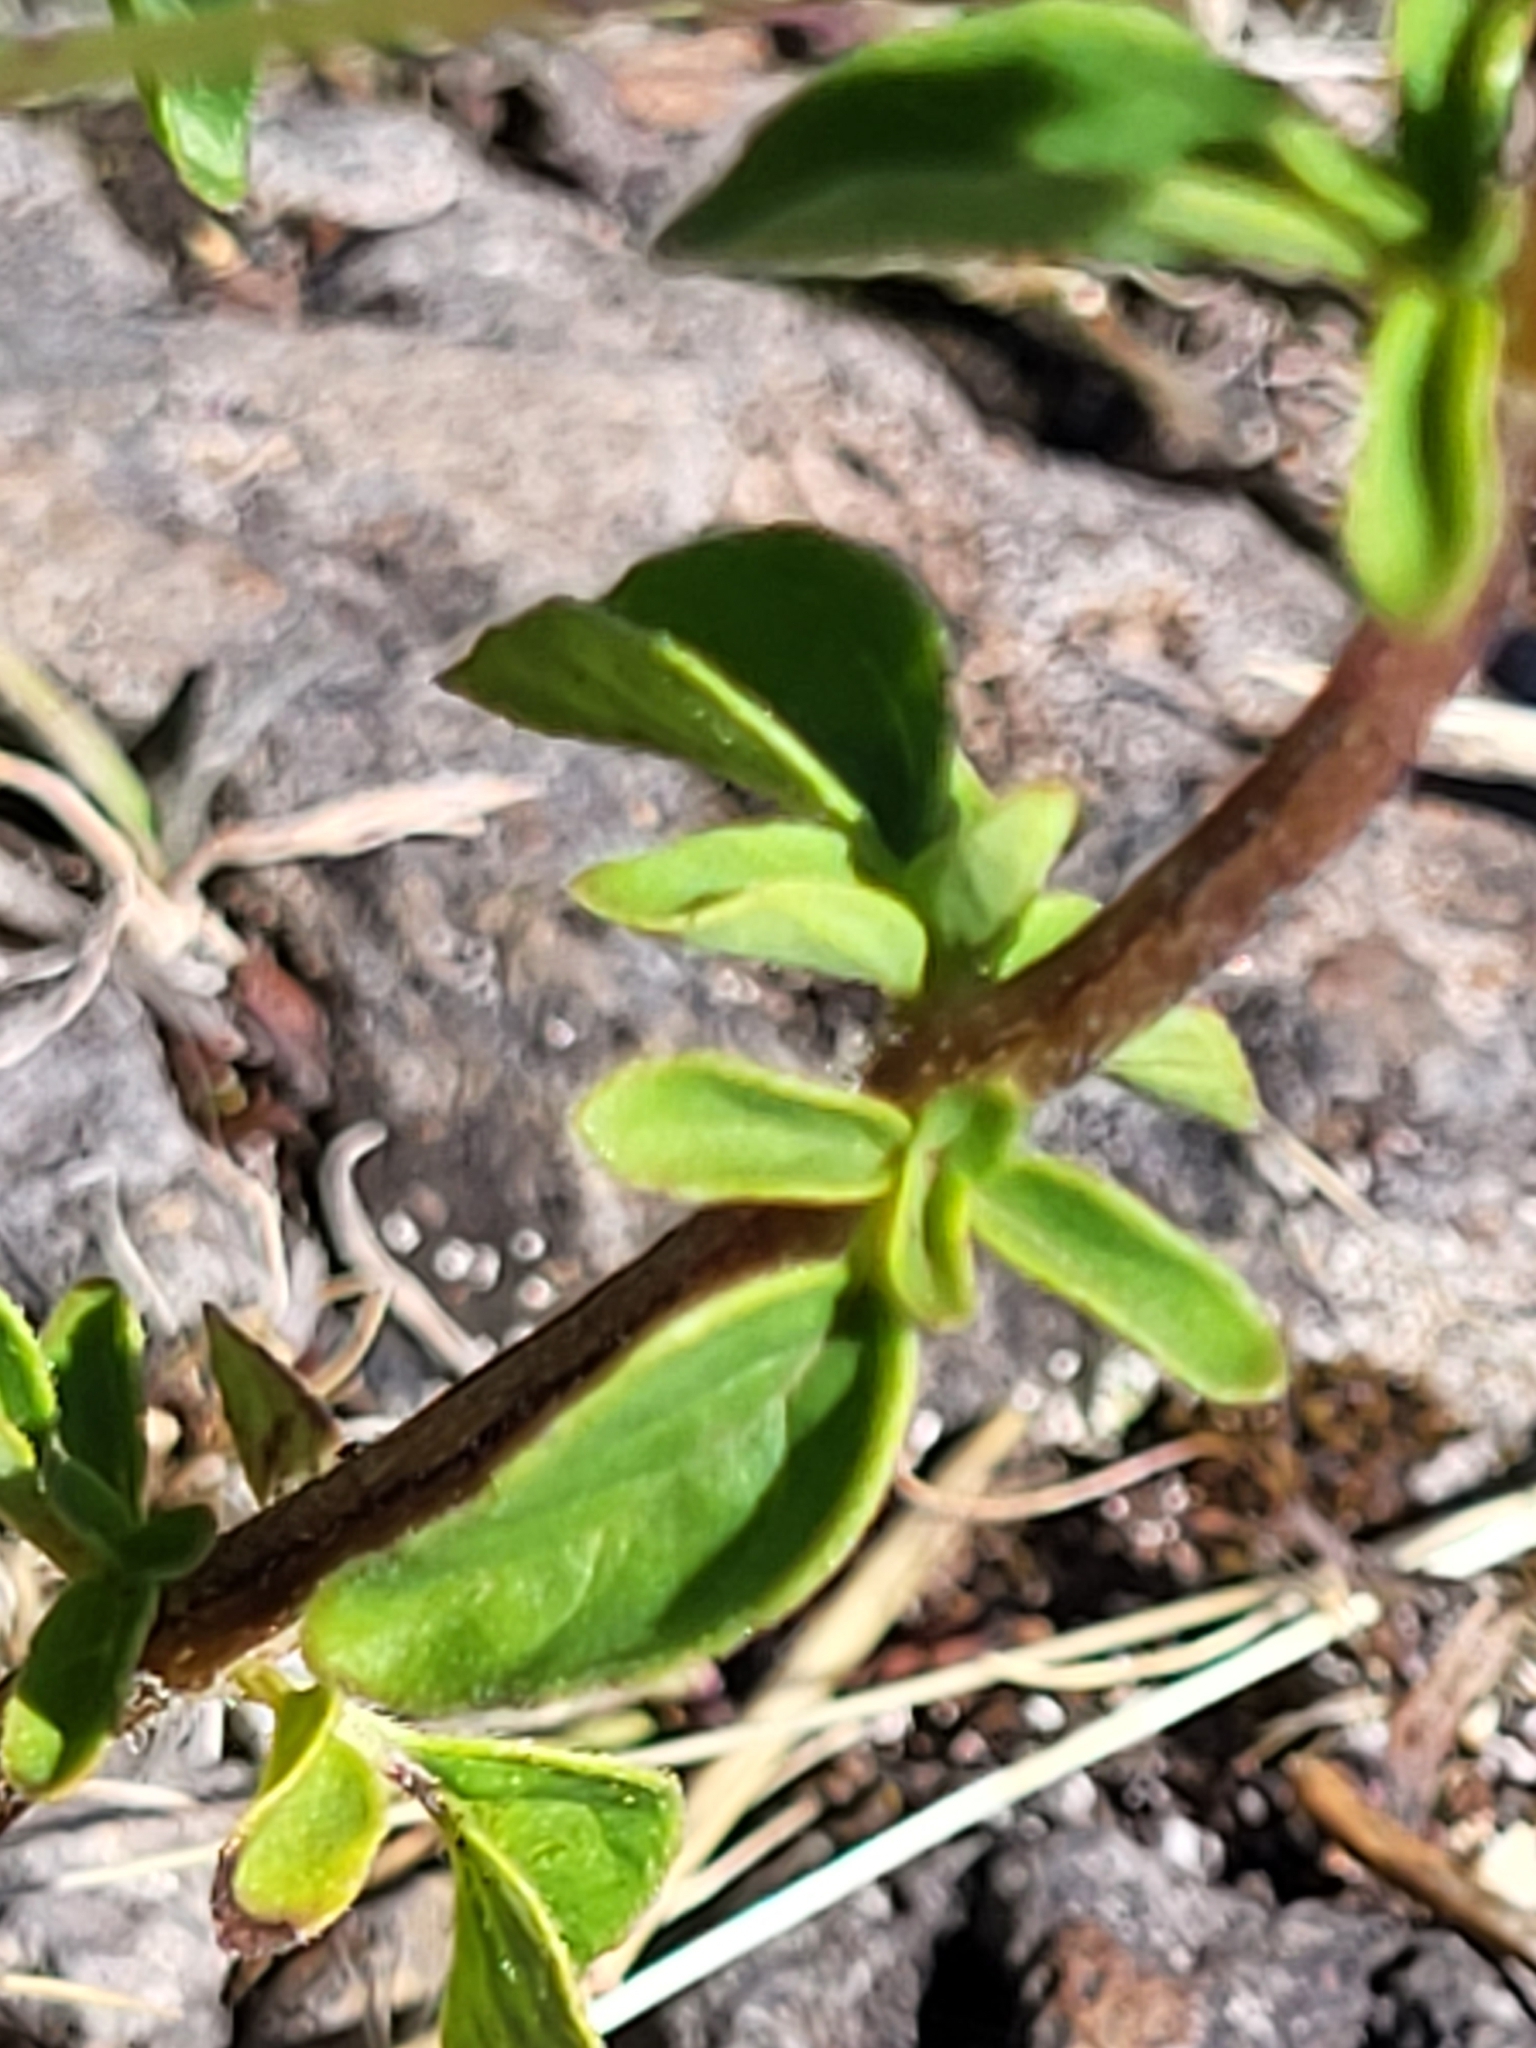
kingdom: Plantae
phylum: Tracheophyta
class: Magnoliopsida
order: Lamiales
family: Lamiaceae
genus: Origanum
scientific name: Origanum vulgare
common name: Wild marjoram
